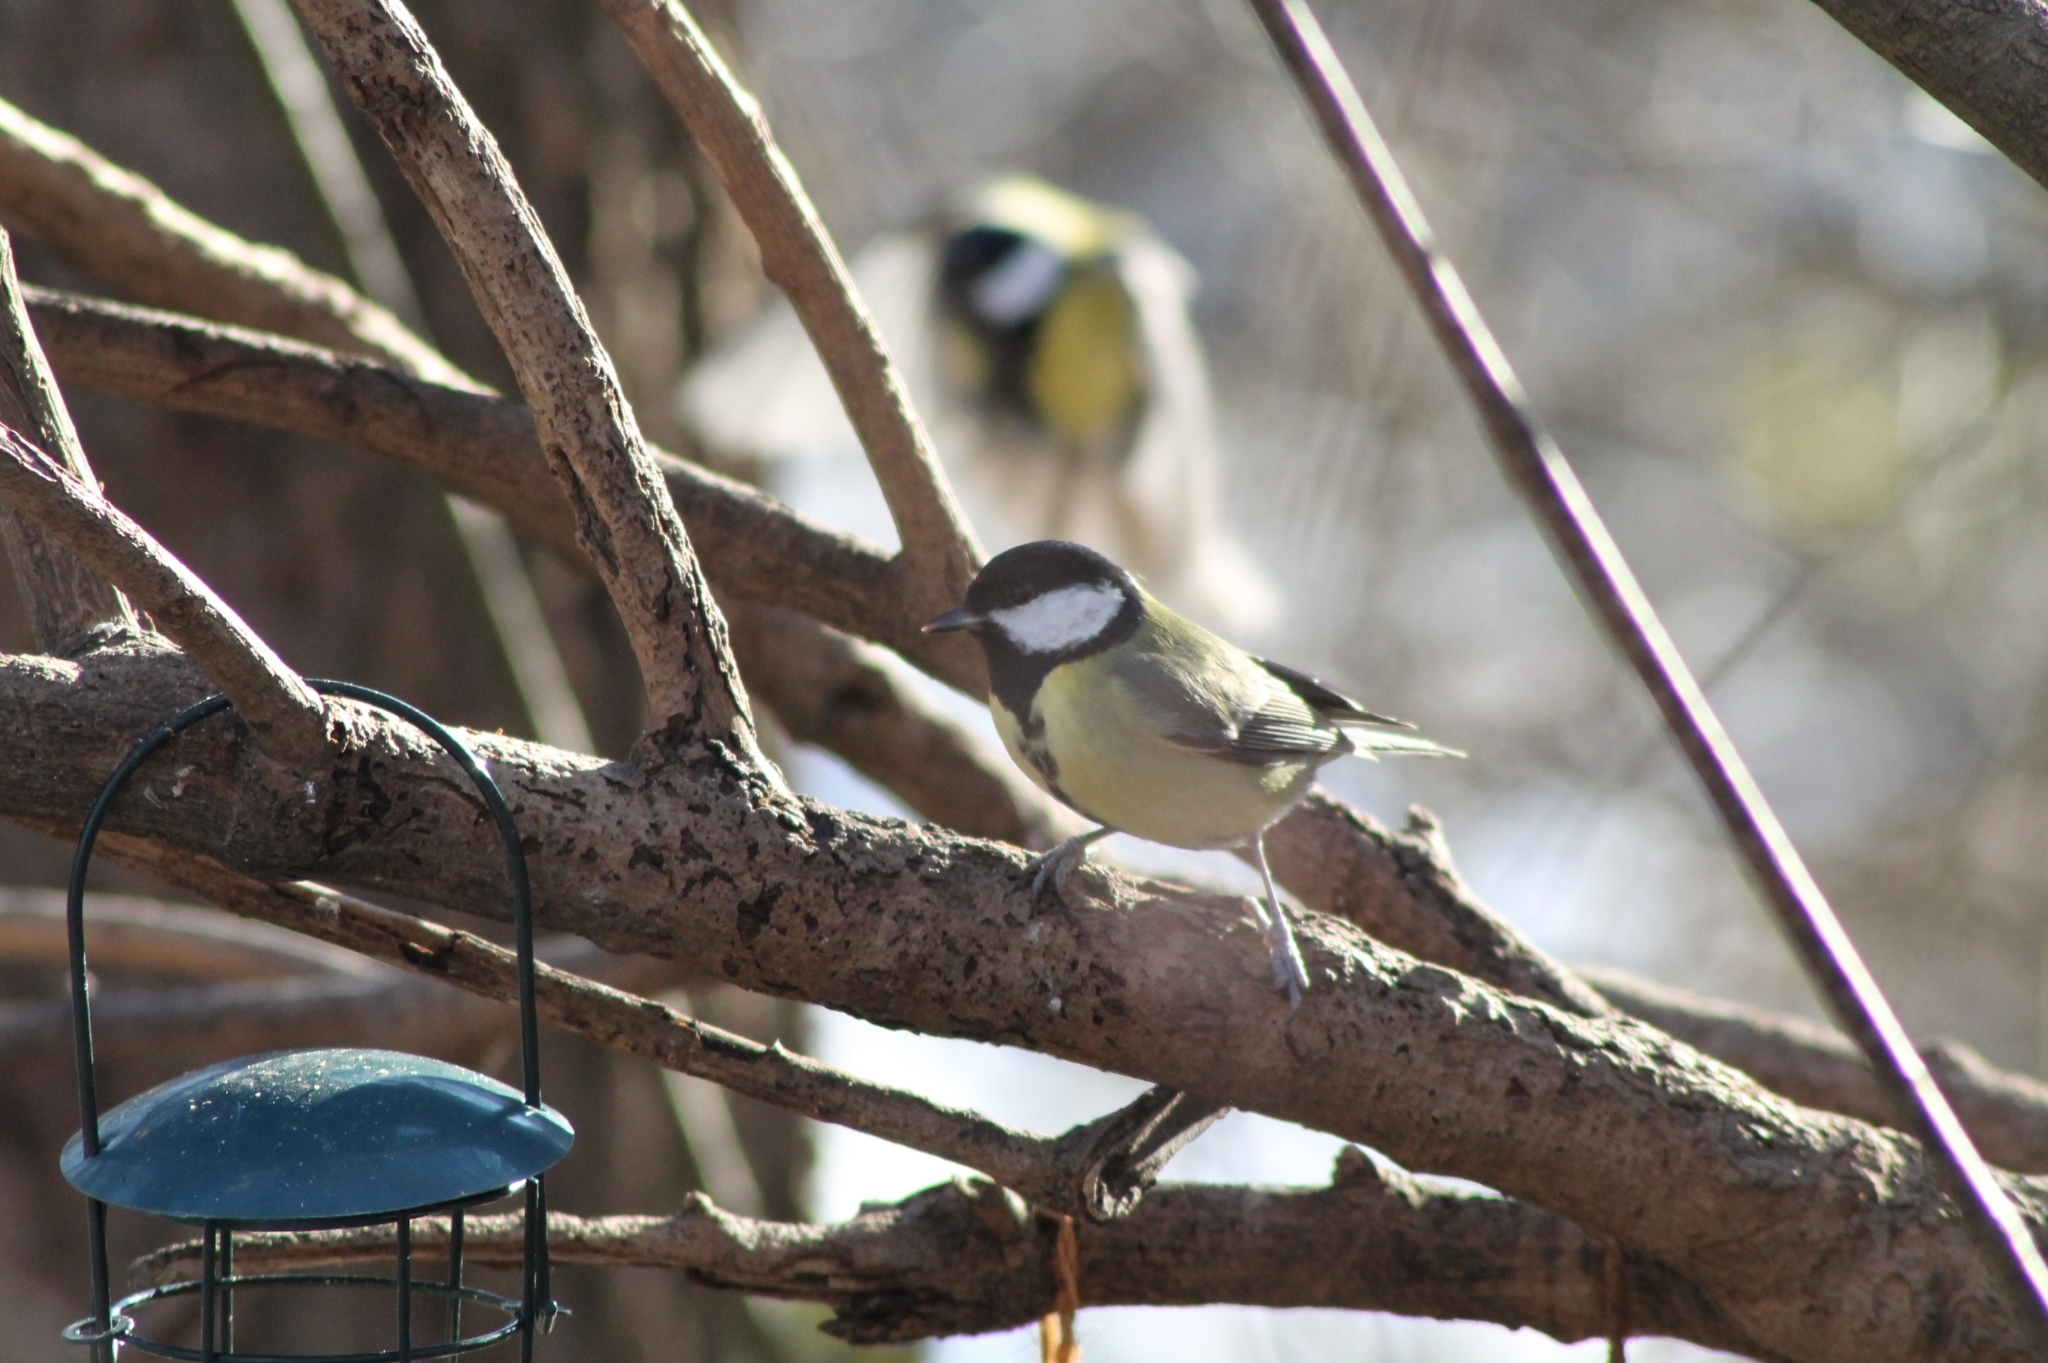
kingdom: Animalia
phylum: Chordata
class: Aves
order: Passeriformes
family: Paridae
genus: Parus
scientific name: Parus major
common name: Great tit
